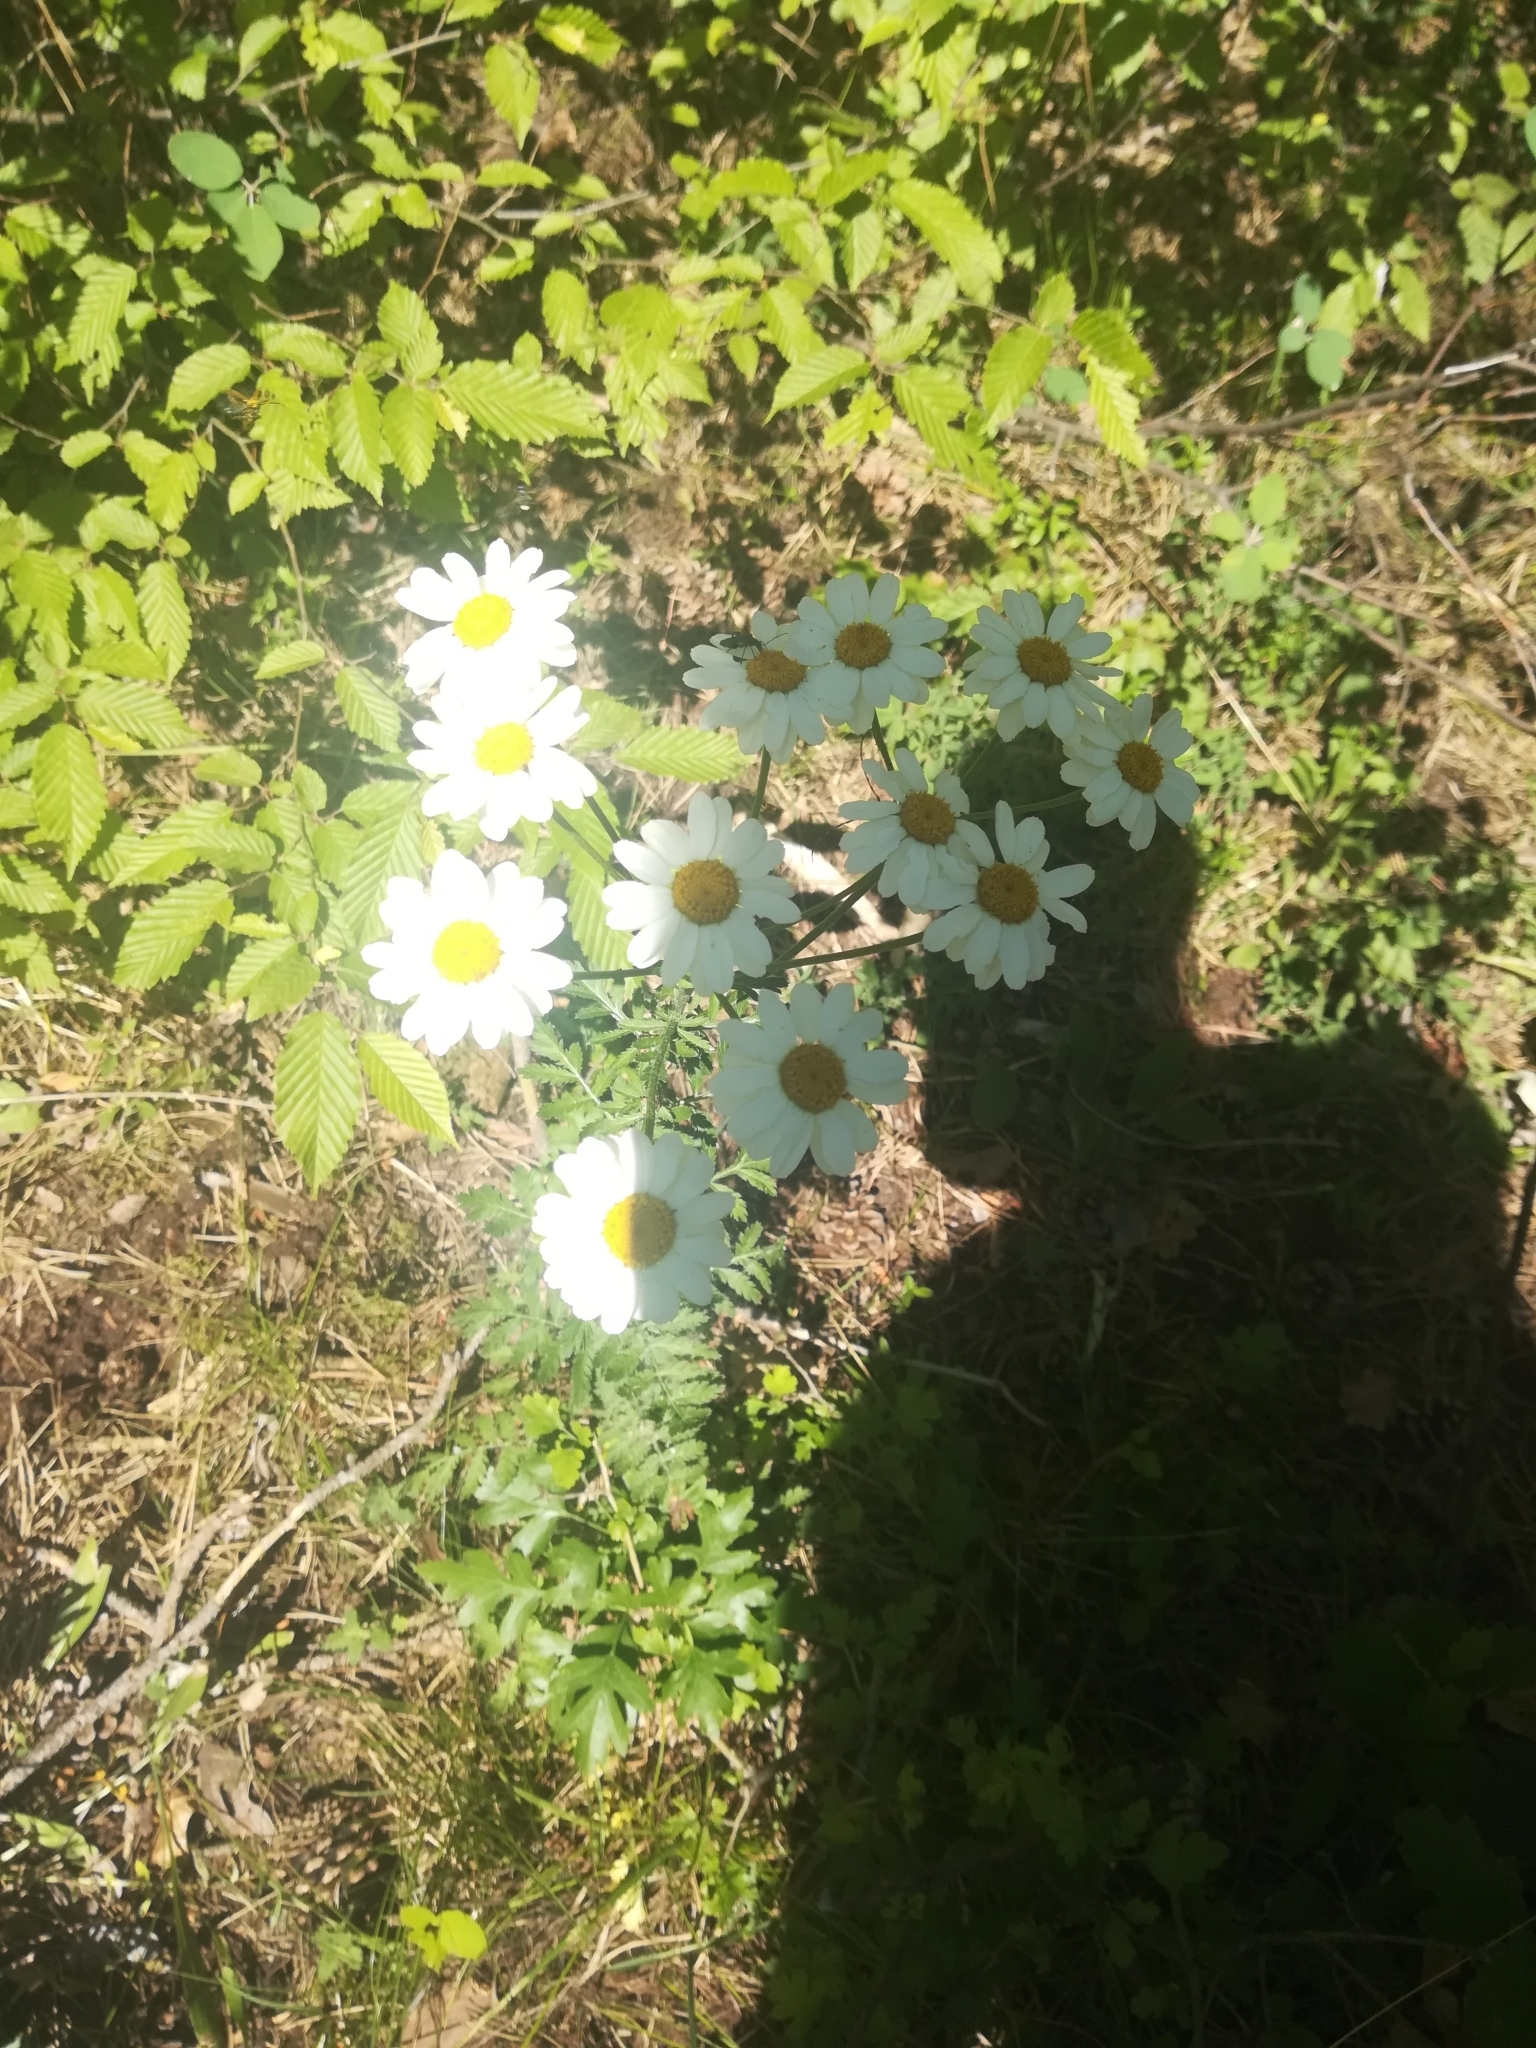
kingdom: Plantae
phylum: Tracheophyta
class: Magnoliopsida
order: Asterales
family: Asteraceae
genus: Tanacetum
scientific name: Tanacetum corymbosum
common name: Scentless feverfew
